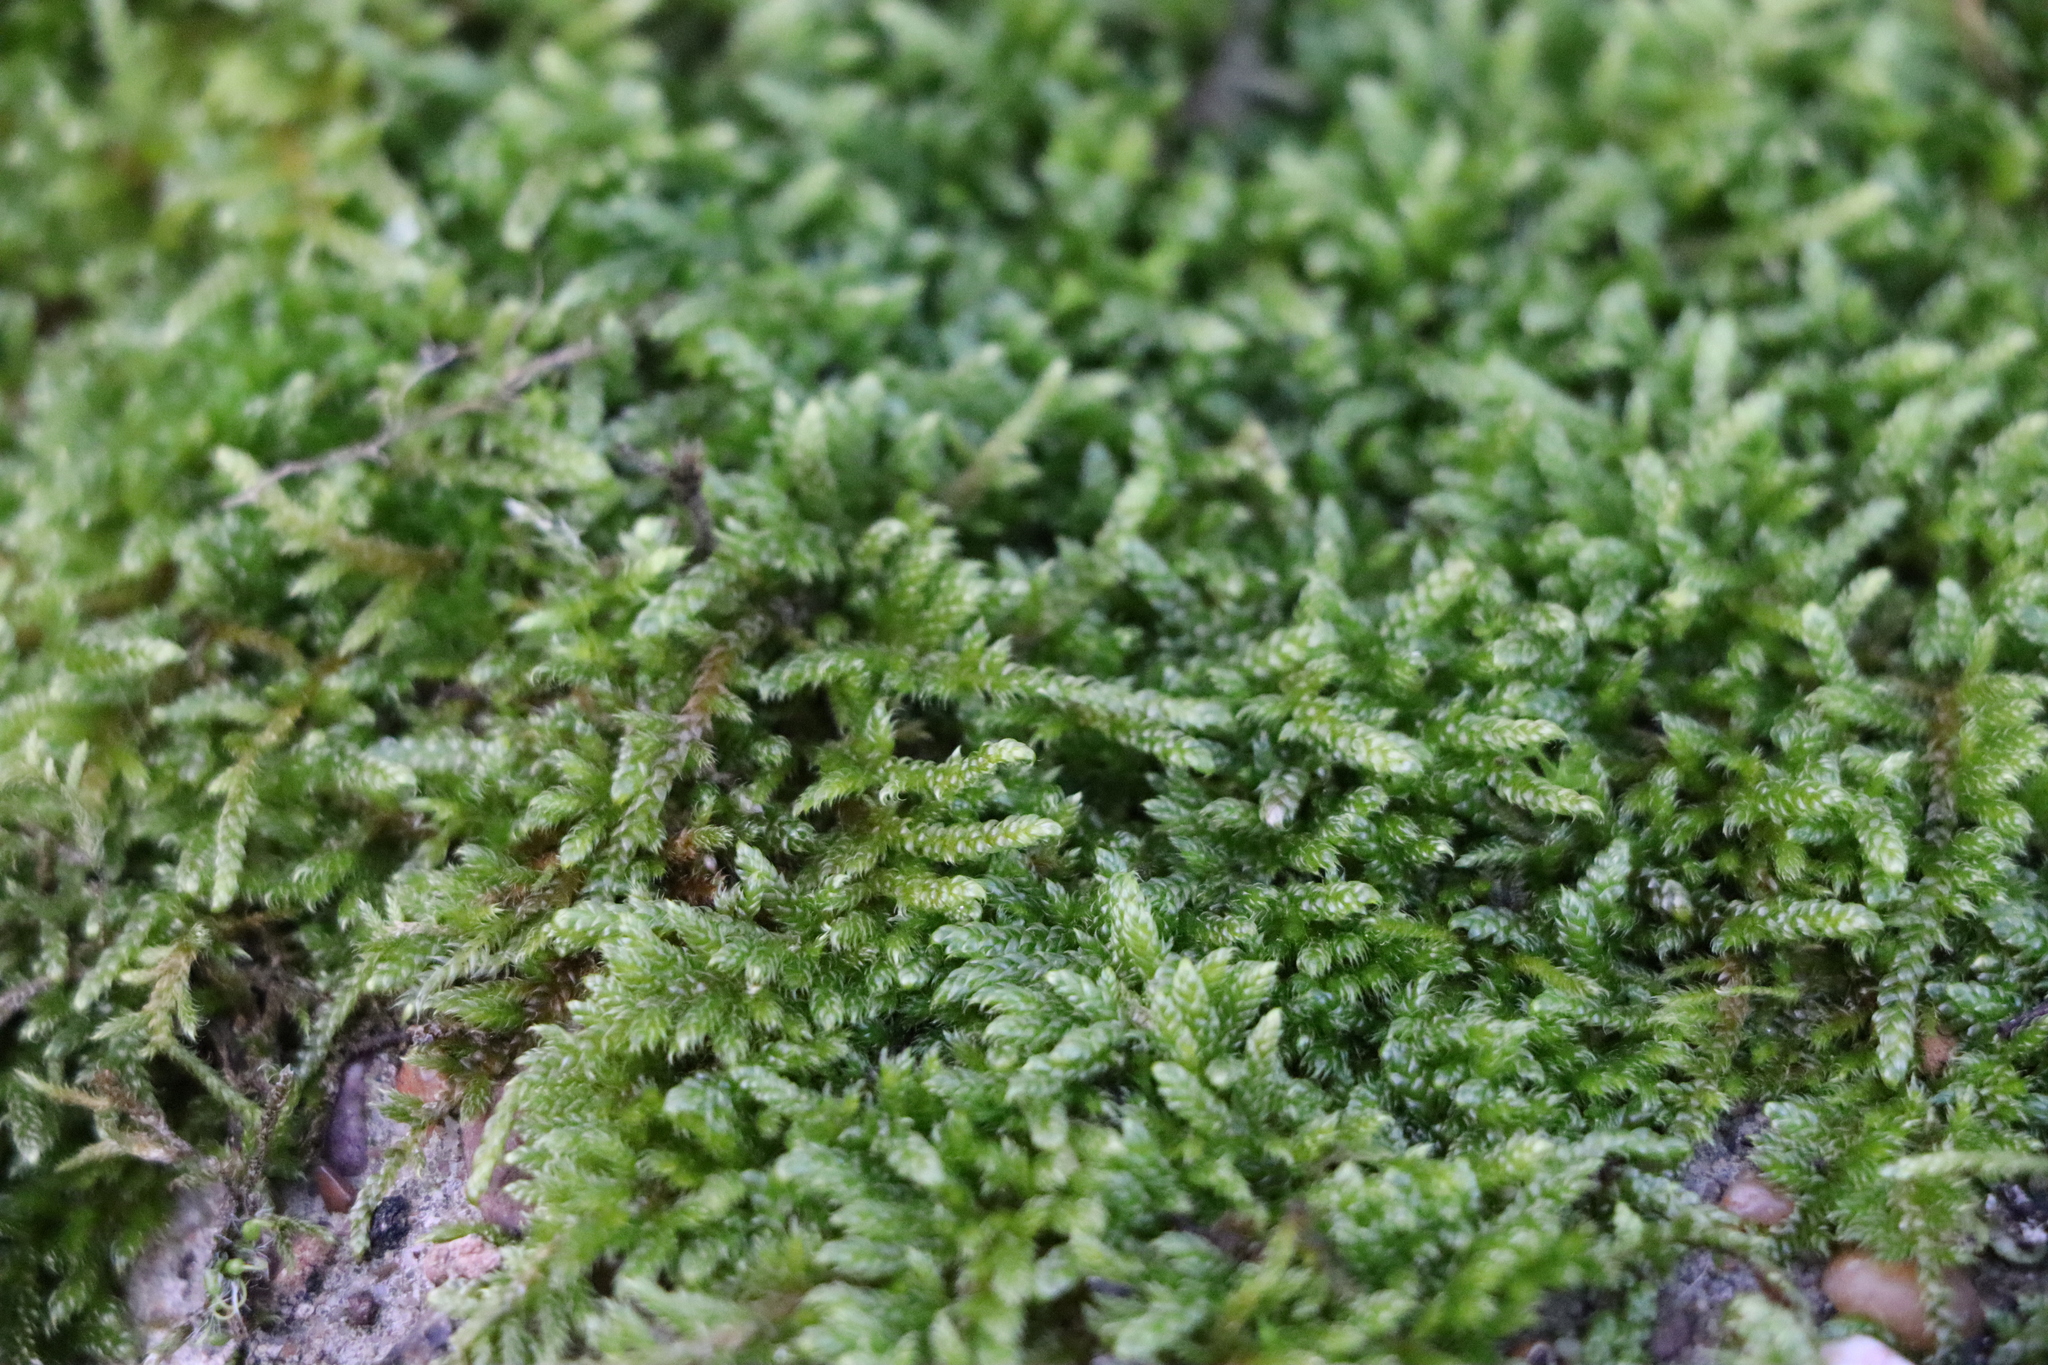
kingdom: Plantae
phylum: Bryophyta
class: Bryopsida
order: Hypnales
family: Hypnaceae
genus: Hypnum
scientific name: Hypnum cupressiforme
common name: Cypress-leaved plait-moss
